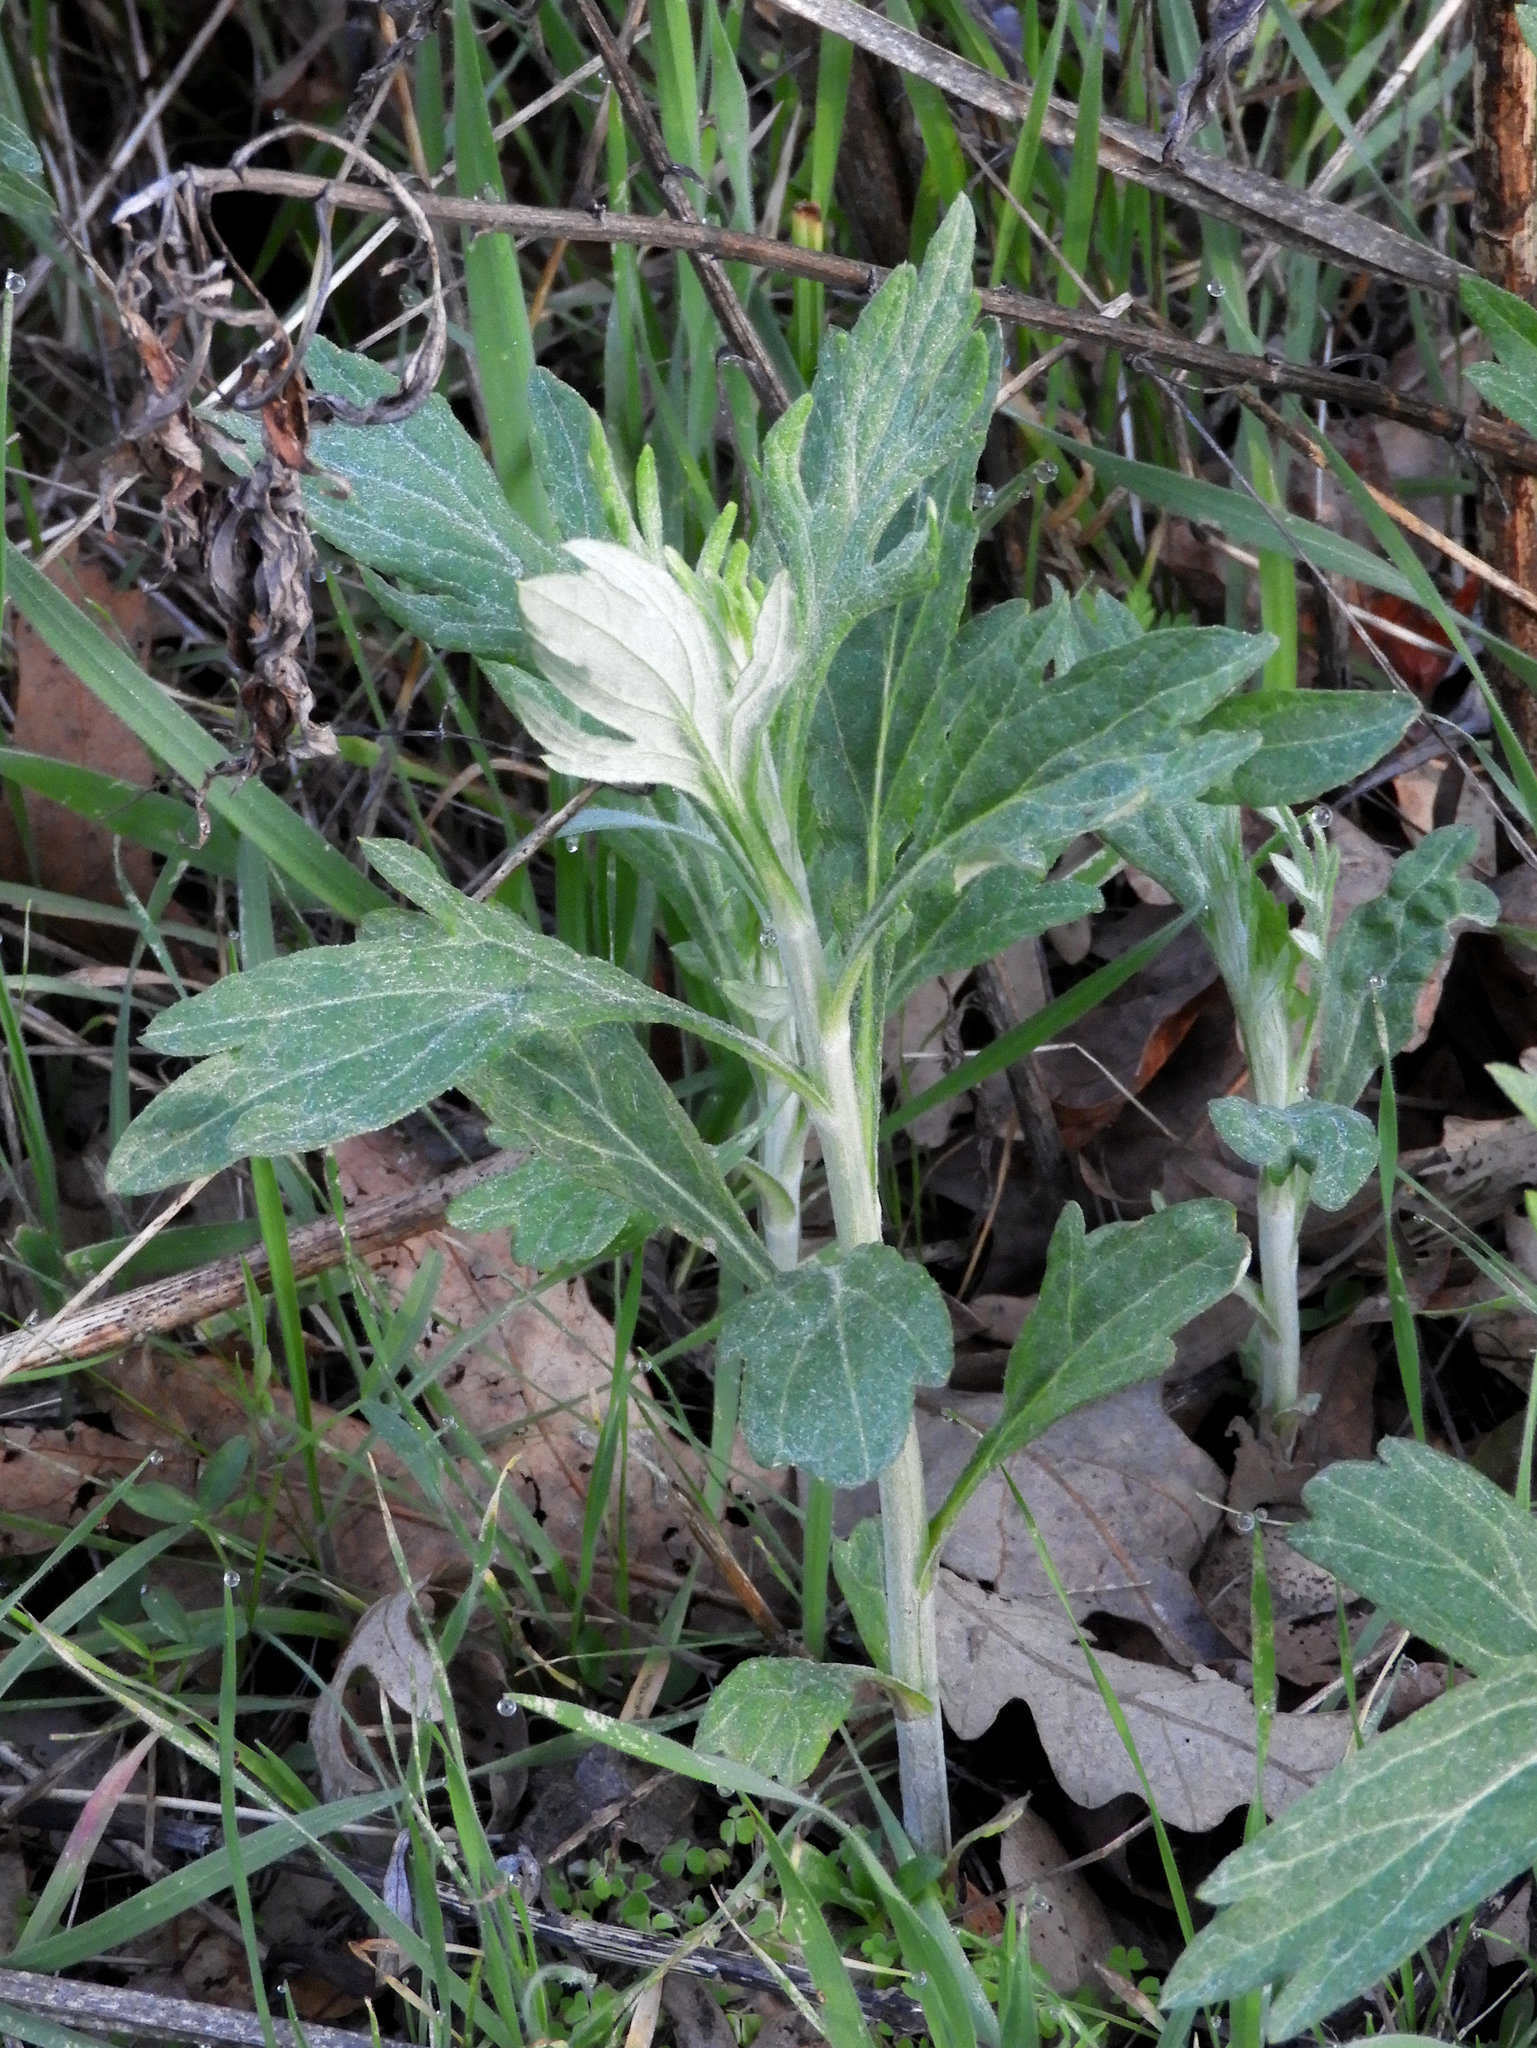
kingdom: Plantae
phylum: Tracheophyta
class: Magnoliopsida
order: Asterales
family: Asteraceae
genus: Artemisia
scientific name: Artemisia douglasiana
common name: Northwest mugwort
